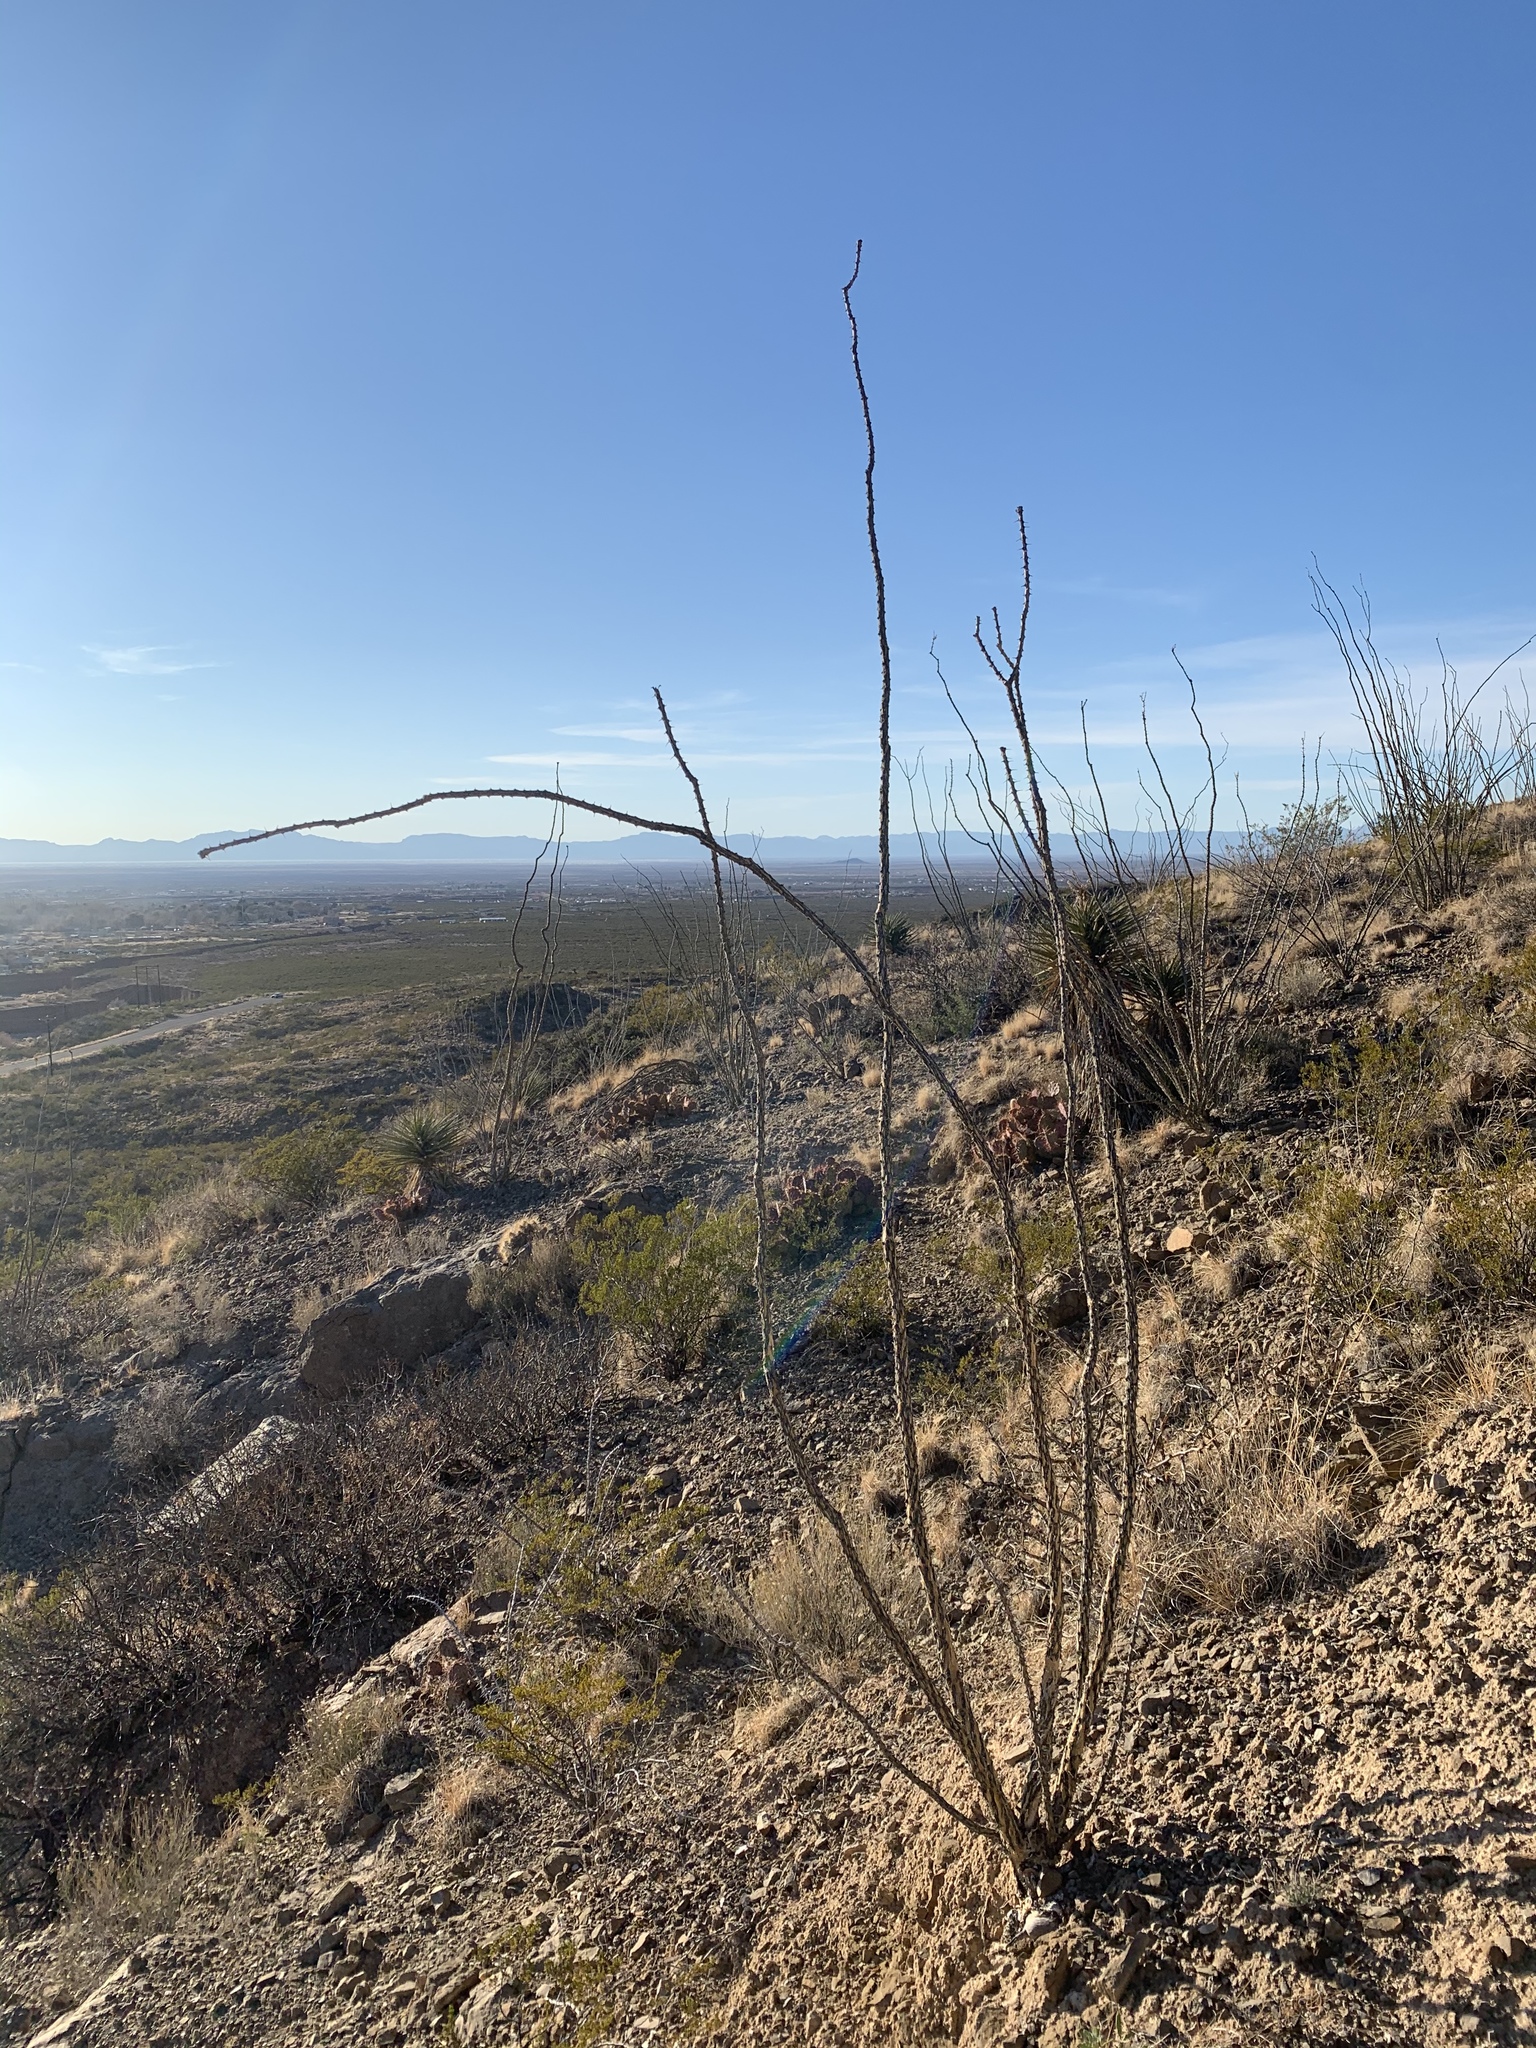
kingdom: Plantae
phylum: Tracheophyta
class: Magnoliopsida
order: Ericales
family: Fouquieriaceae
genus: Fouquieria
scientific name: Fouquieria splendens
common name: Vine-cactus
